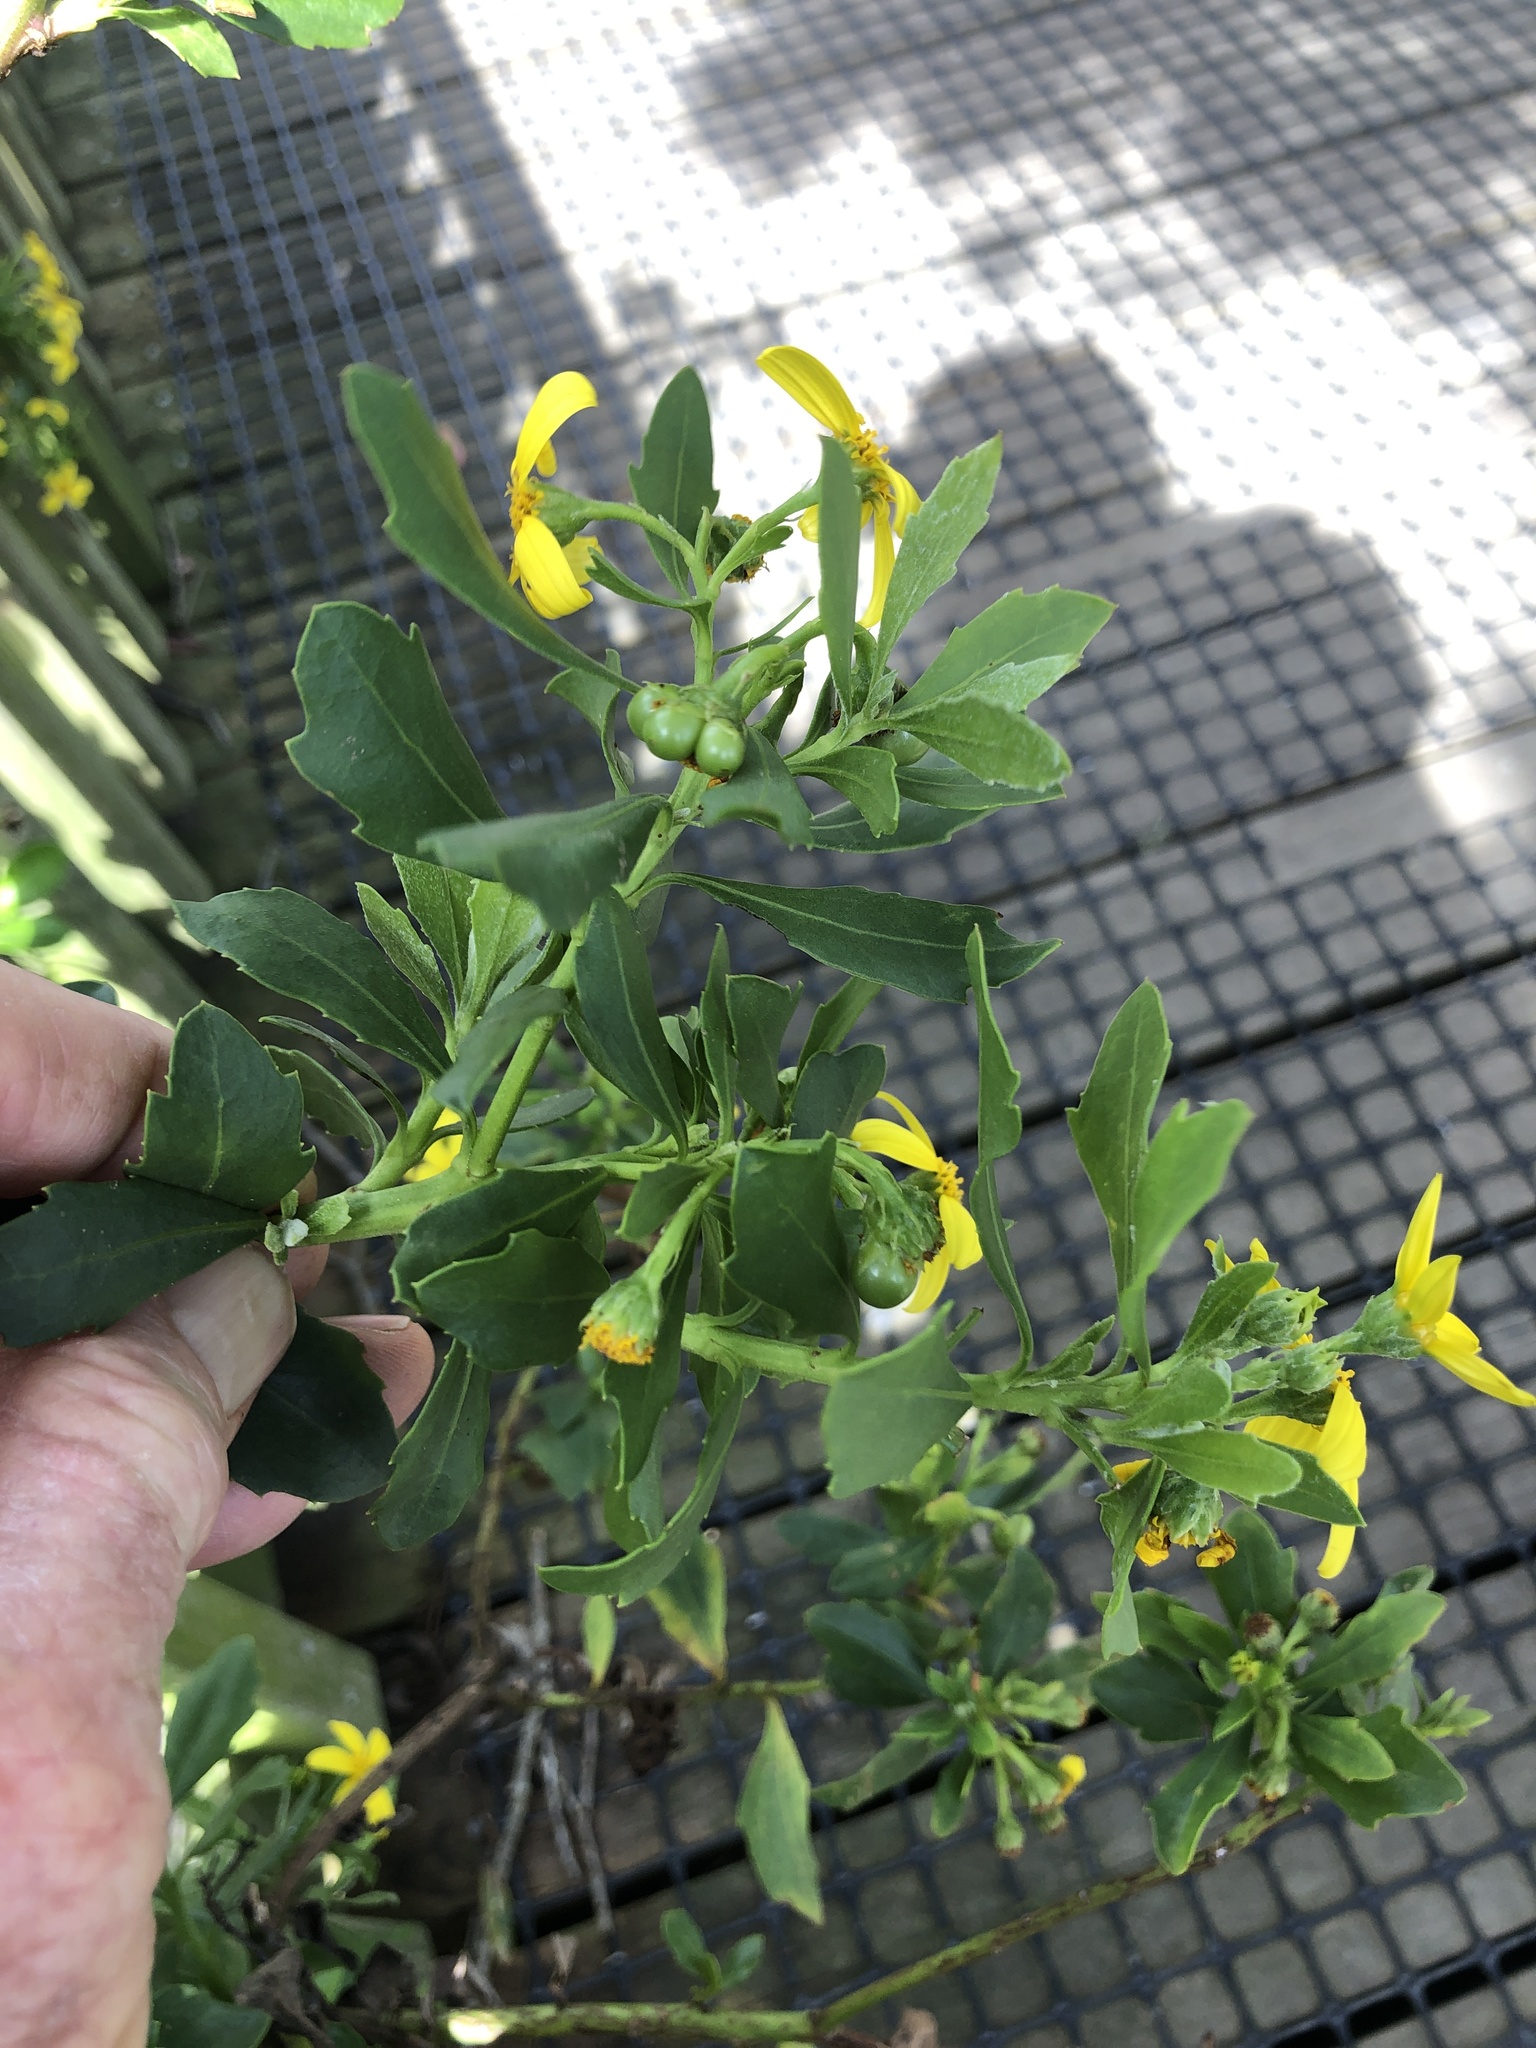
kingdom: Plantae
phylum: Tracheophyta
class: Magnoliopsida
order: Asterales
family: Asteraceae
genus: Osteospermum
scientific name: Osteospermum moniliferum
